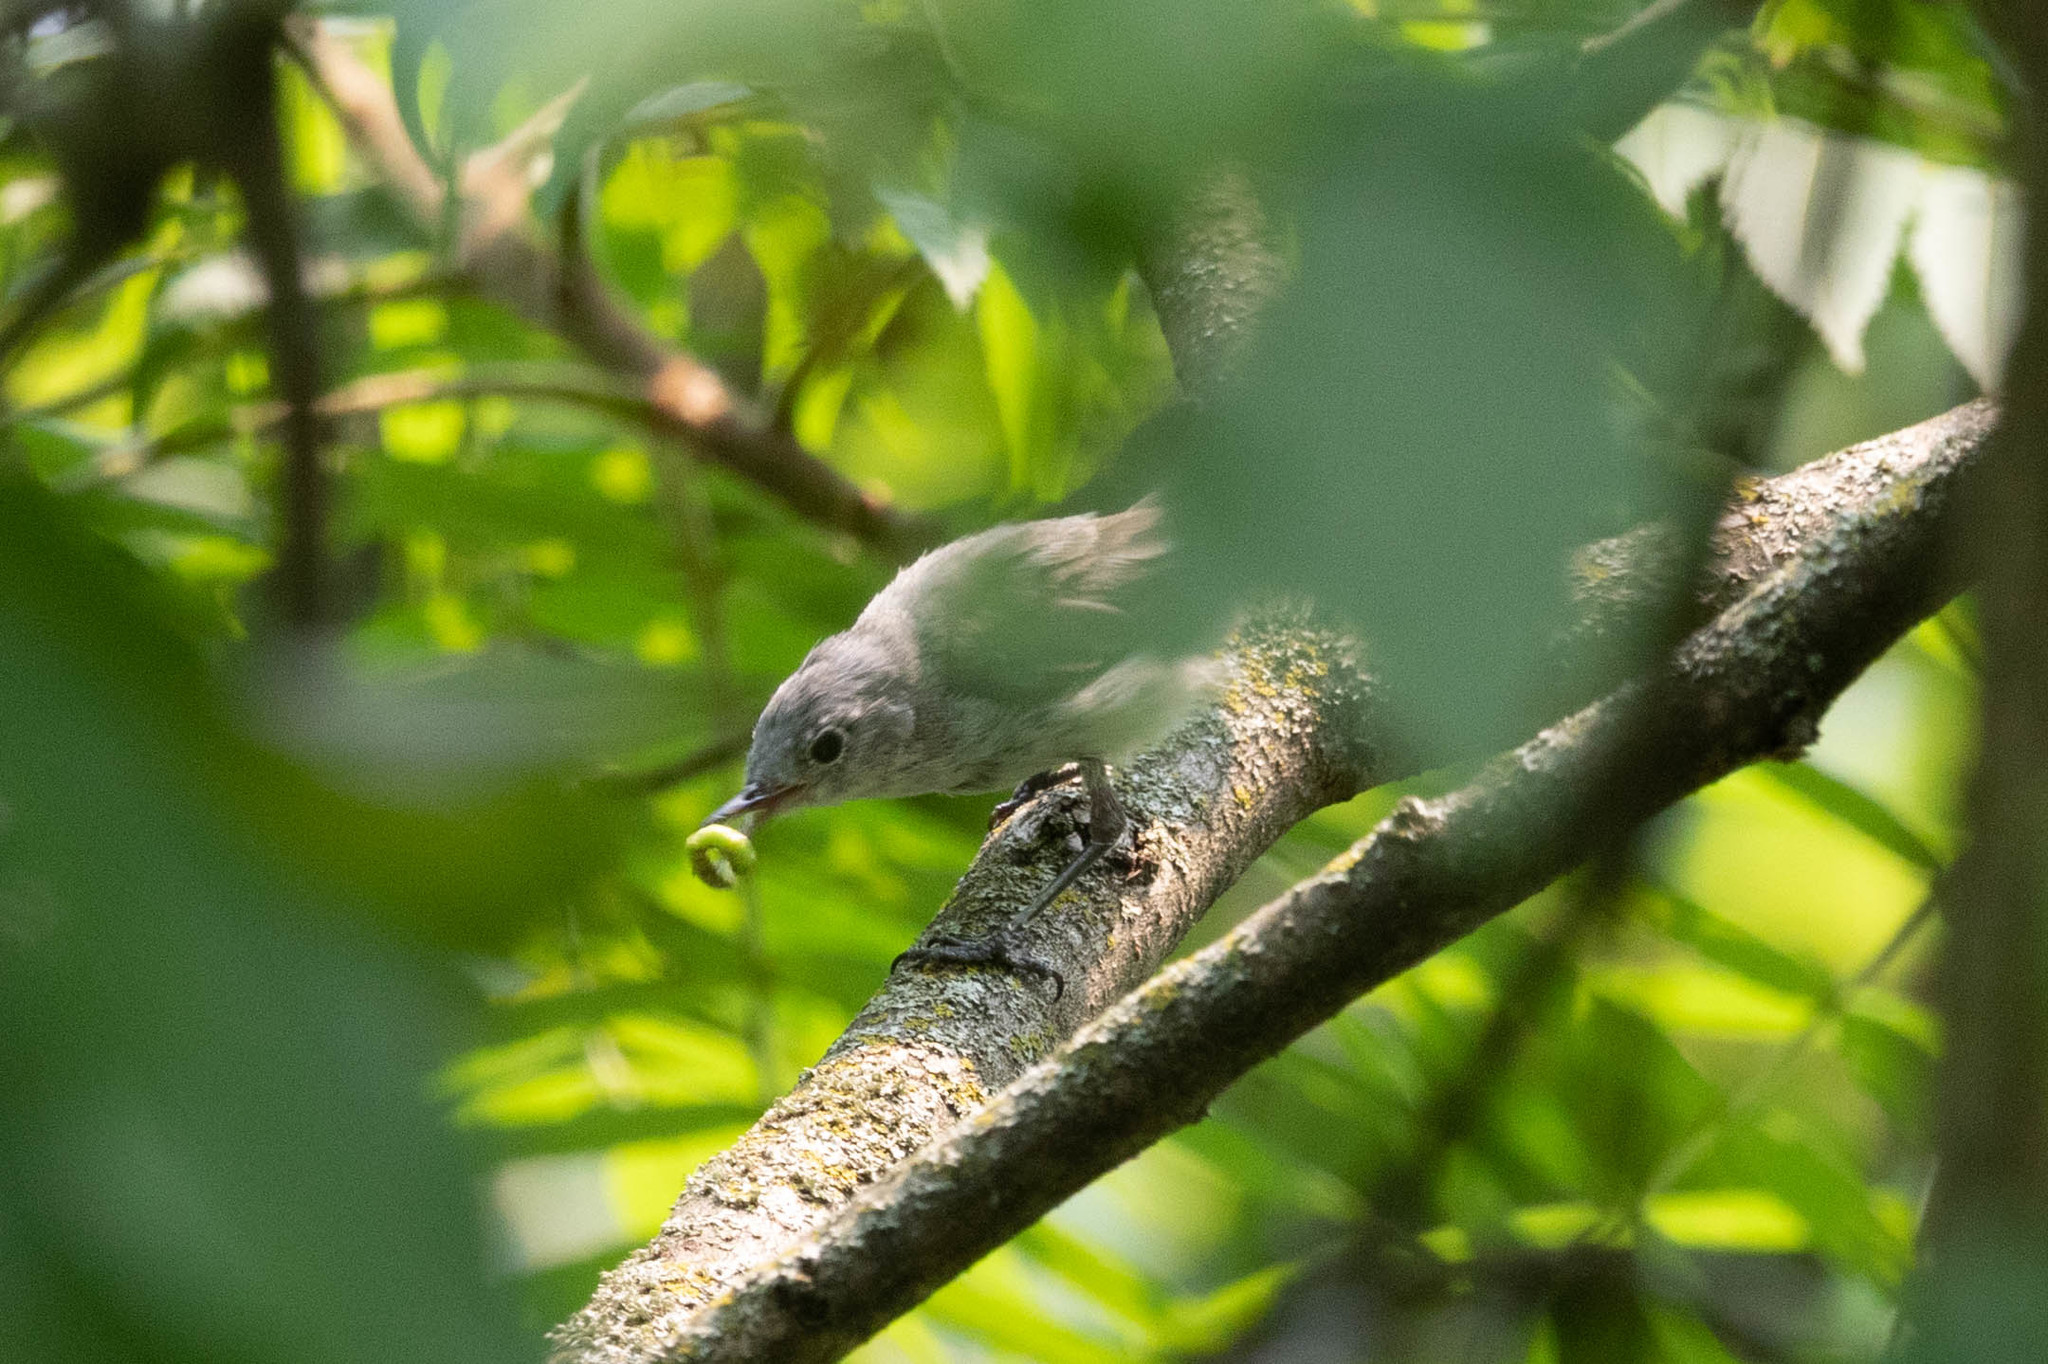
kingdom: Animalia
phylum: Chordata
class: Aves
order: Passeriformes
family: Polioptilidae
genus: Polioptila
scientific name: Polioptila caerulea
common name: Blue-gray gnatcatcher
